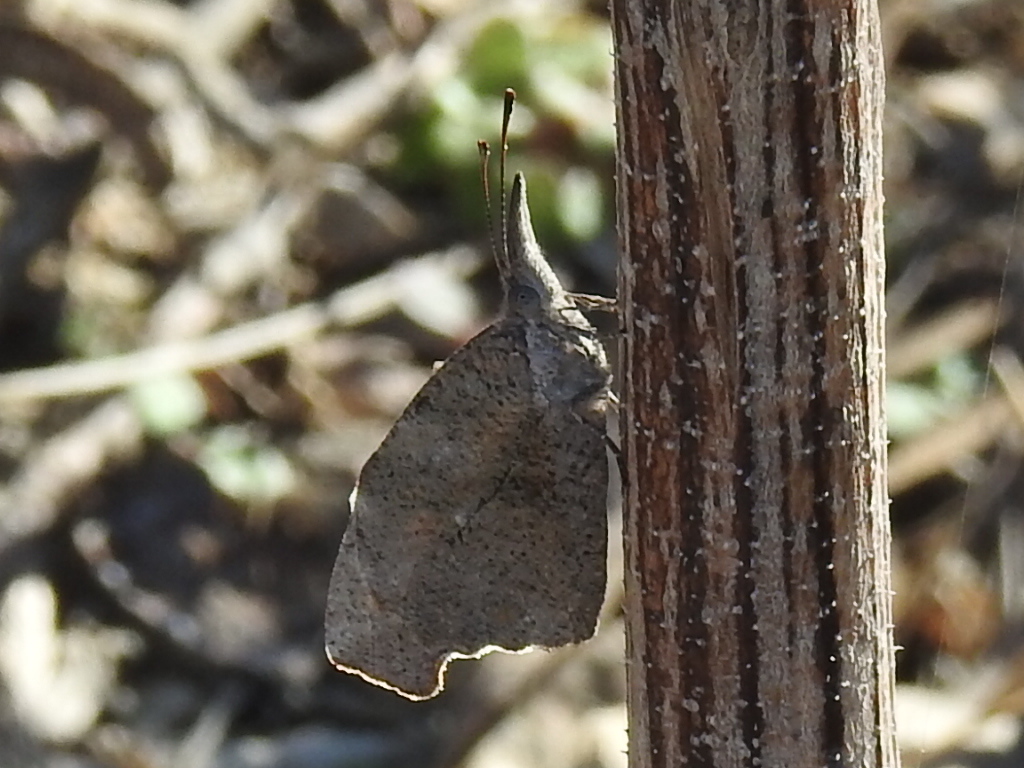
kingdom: Animalia
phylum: Arthropoda
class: Insecta
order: Lepidoptera
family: Nymphalidae
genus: Libytheana
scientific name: Libytheana carinenta
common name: American snout
